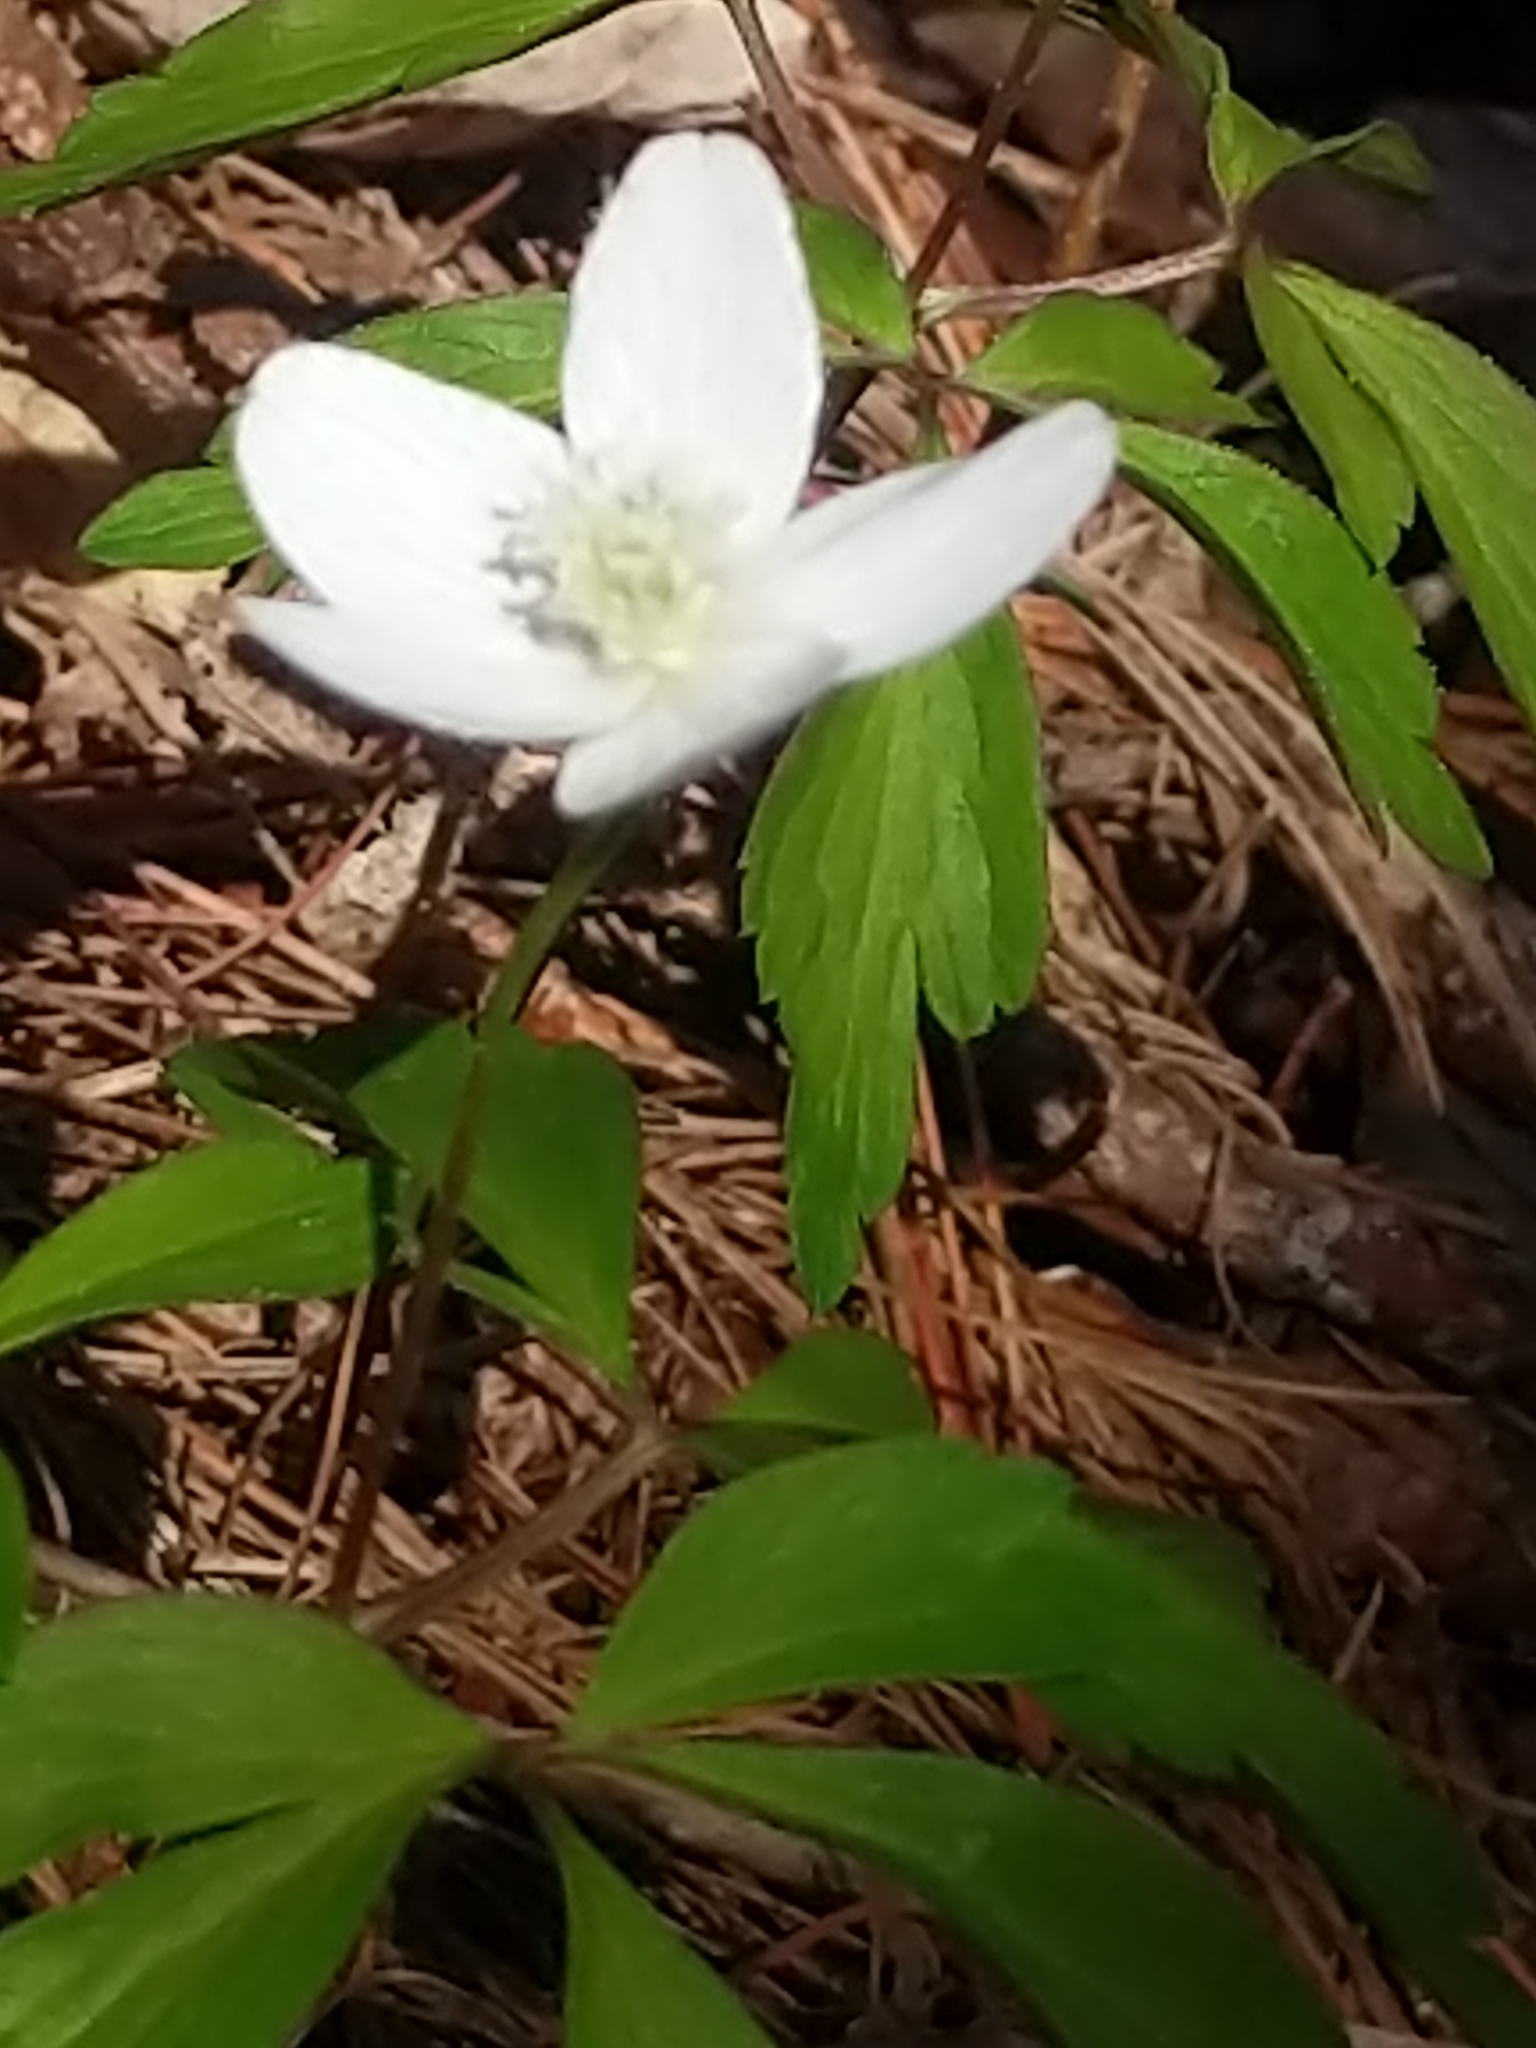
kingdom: Plantae
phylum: Tracheophyta
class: Magnoliopsida
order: Ranunculales
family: Ranunculaceae
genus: Anemone
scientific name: Anemone quinquefolia
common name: Wood anemone
